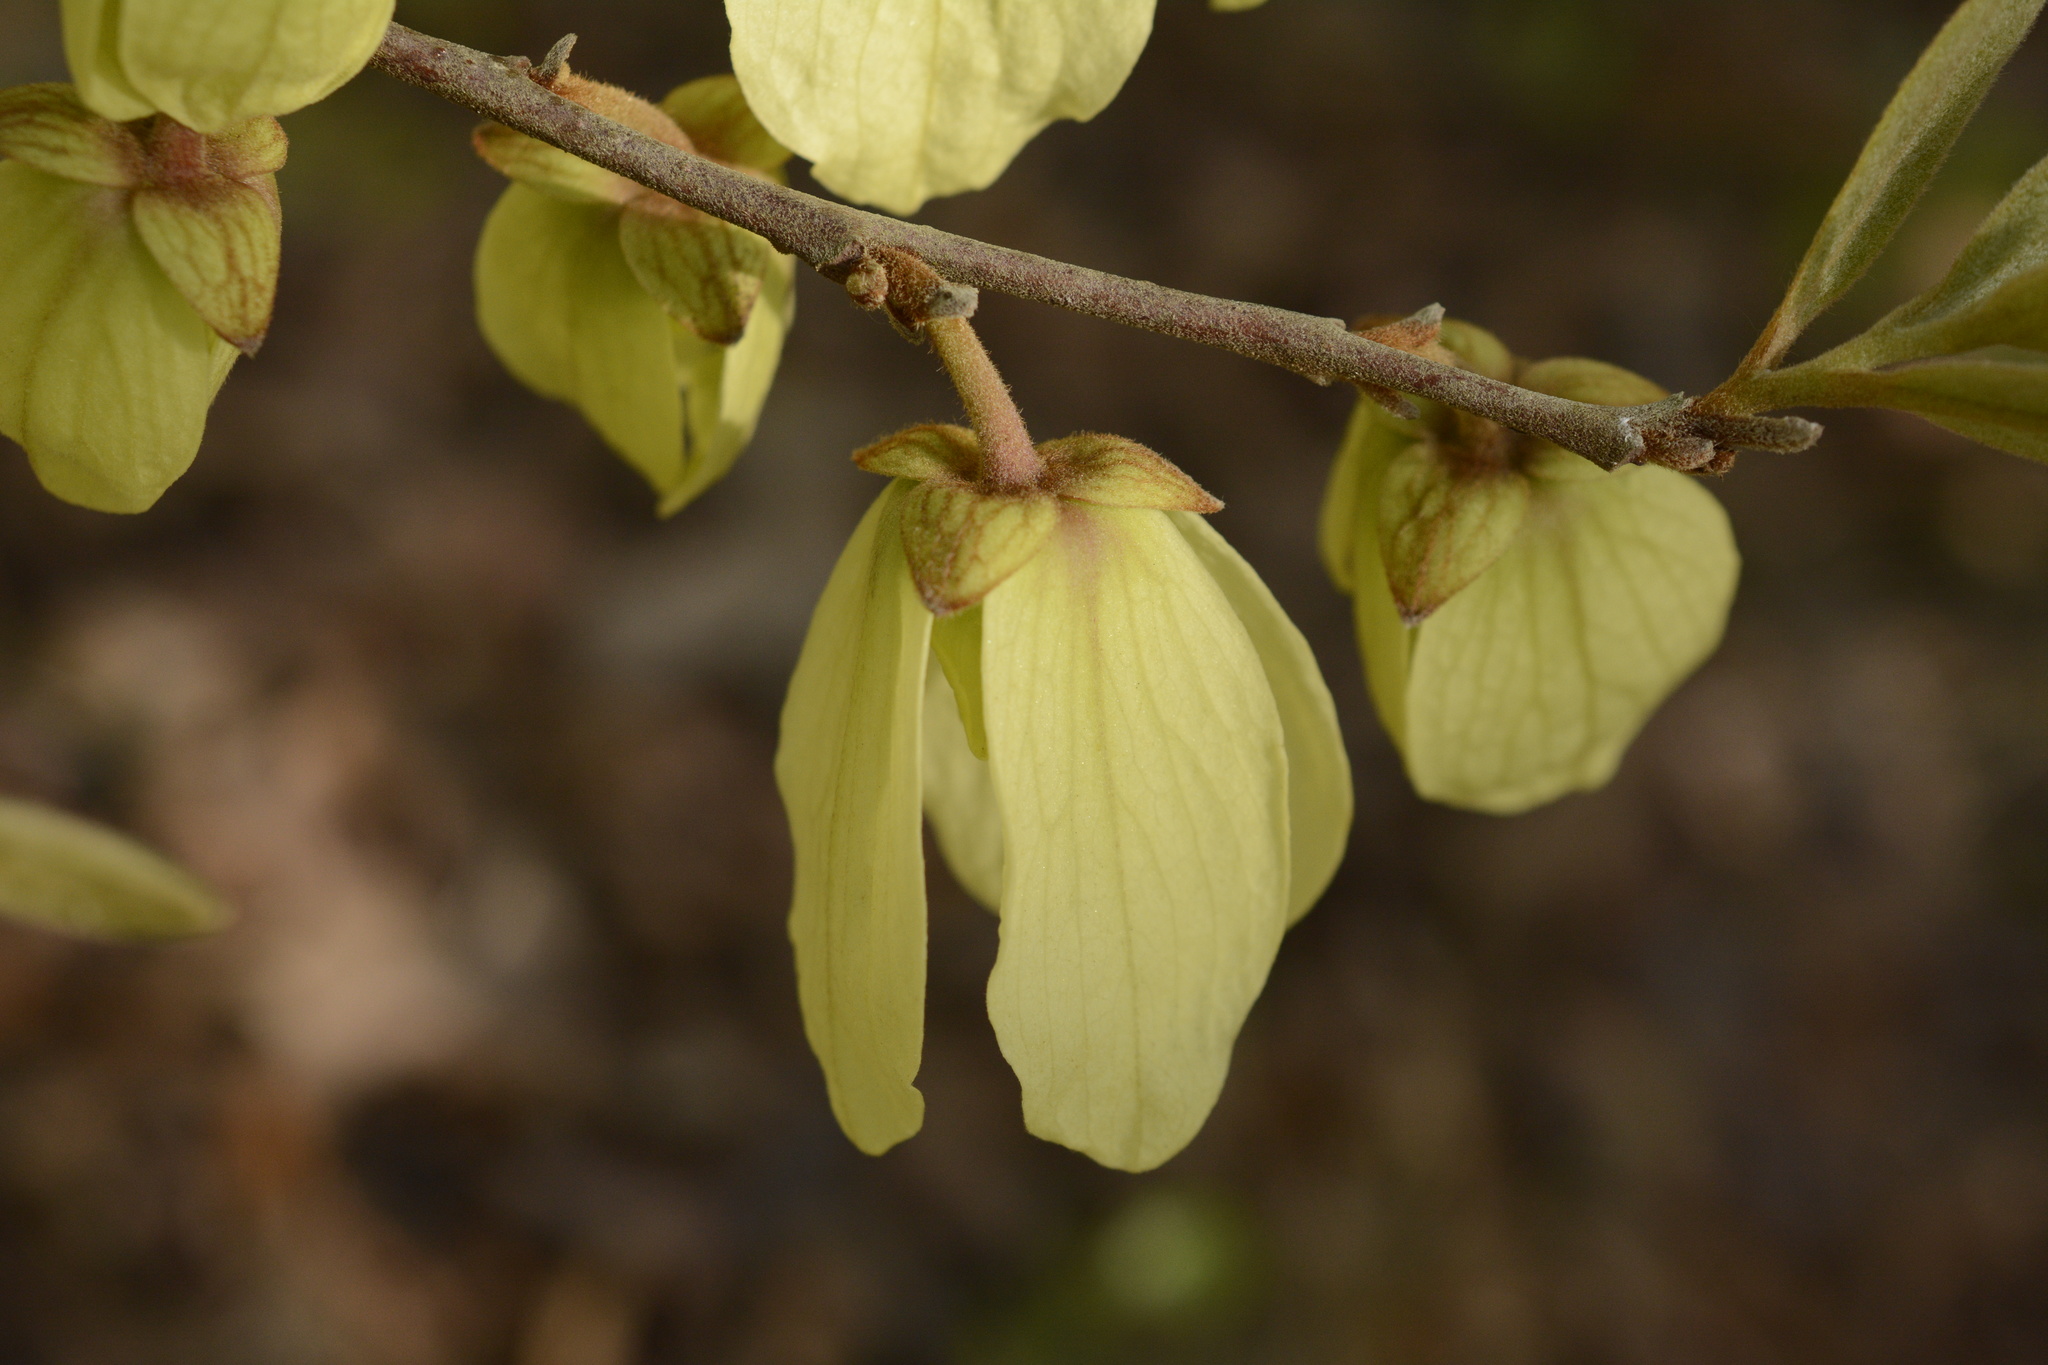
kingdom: Plantae
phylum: Tracheophyta
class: Magnoliopsida
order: Magnoliales
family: Annonaceae
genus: Asimina
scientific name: Asimina speciosa
